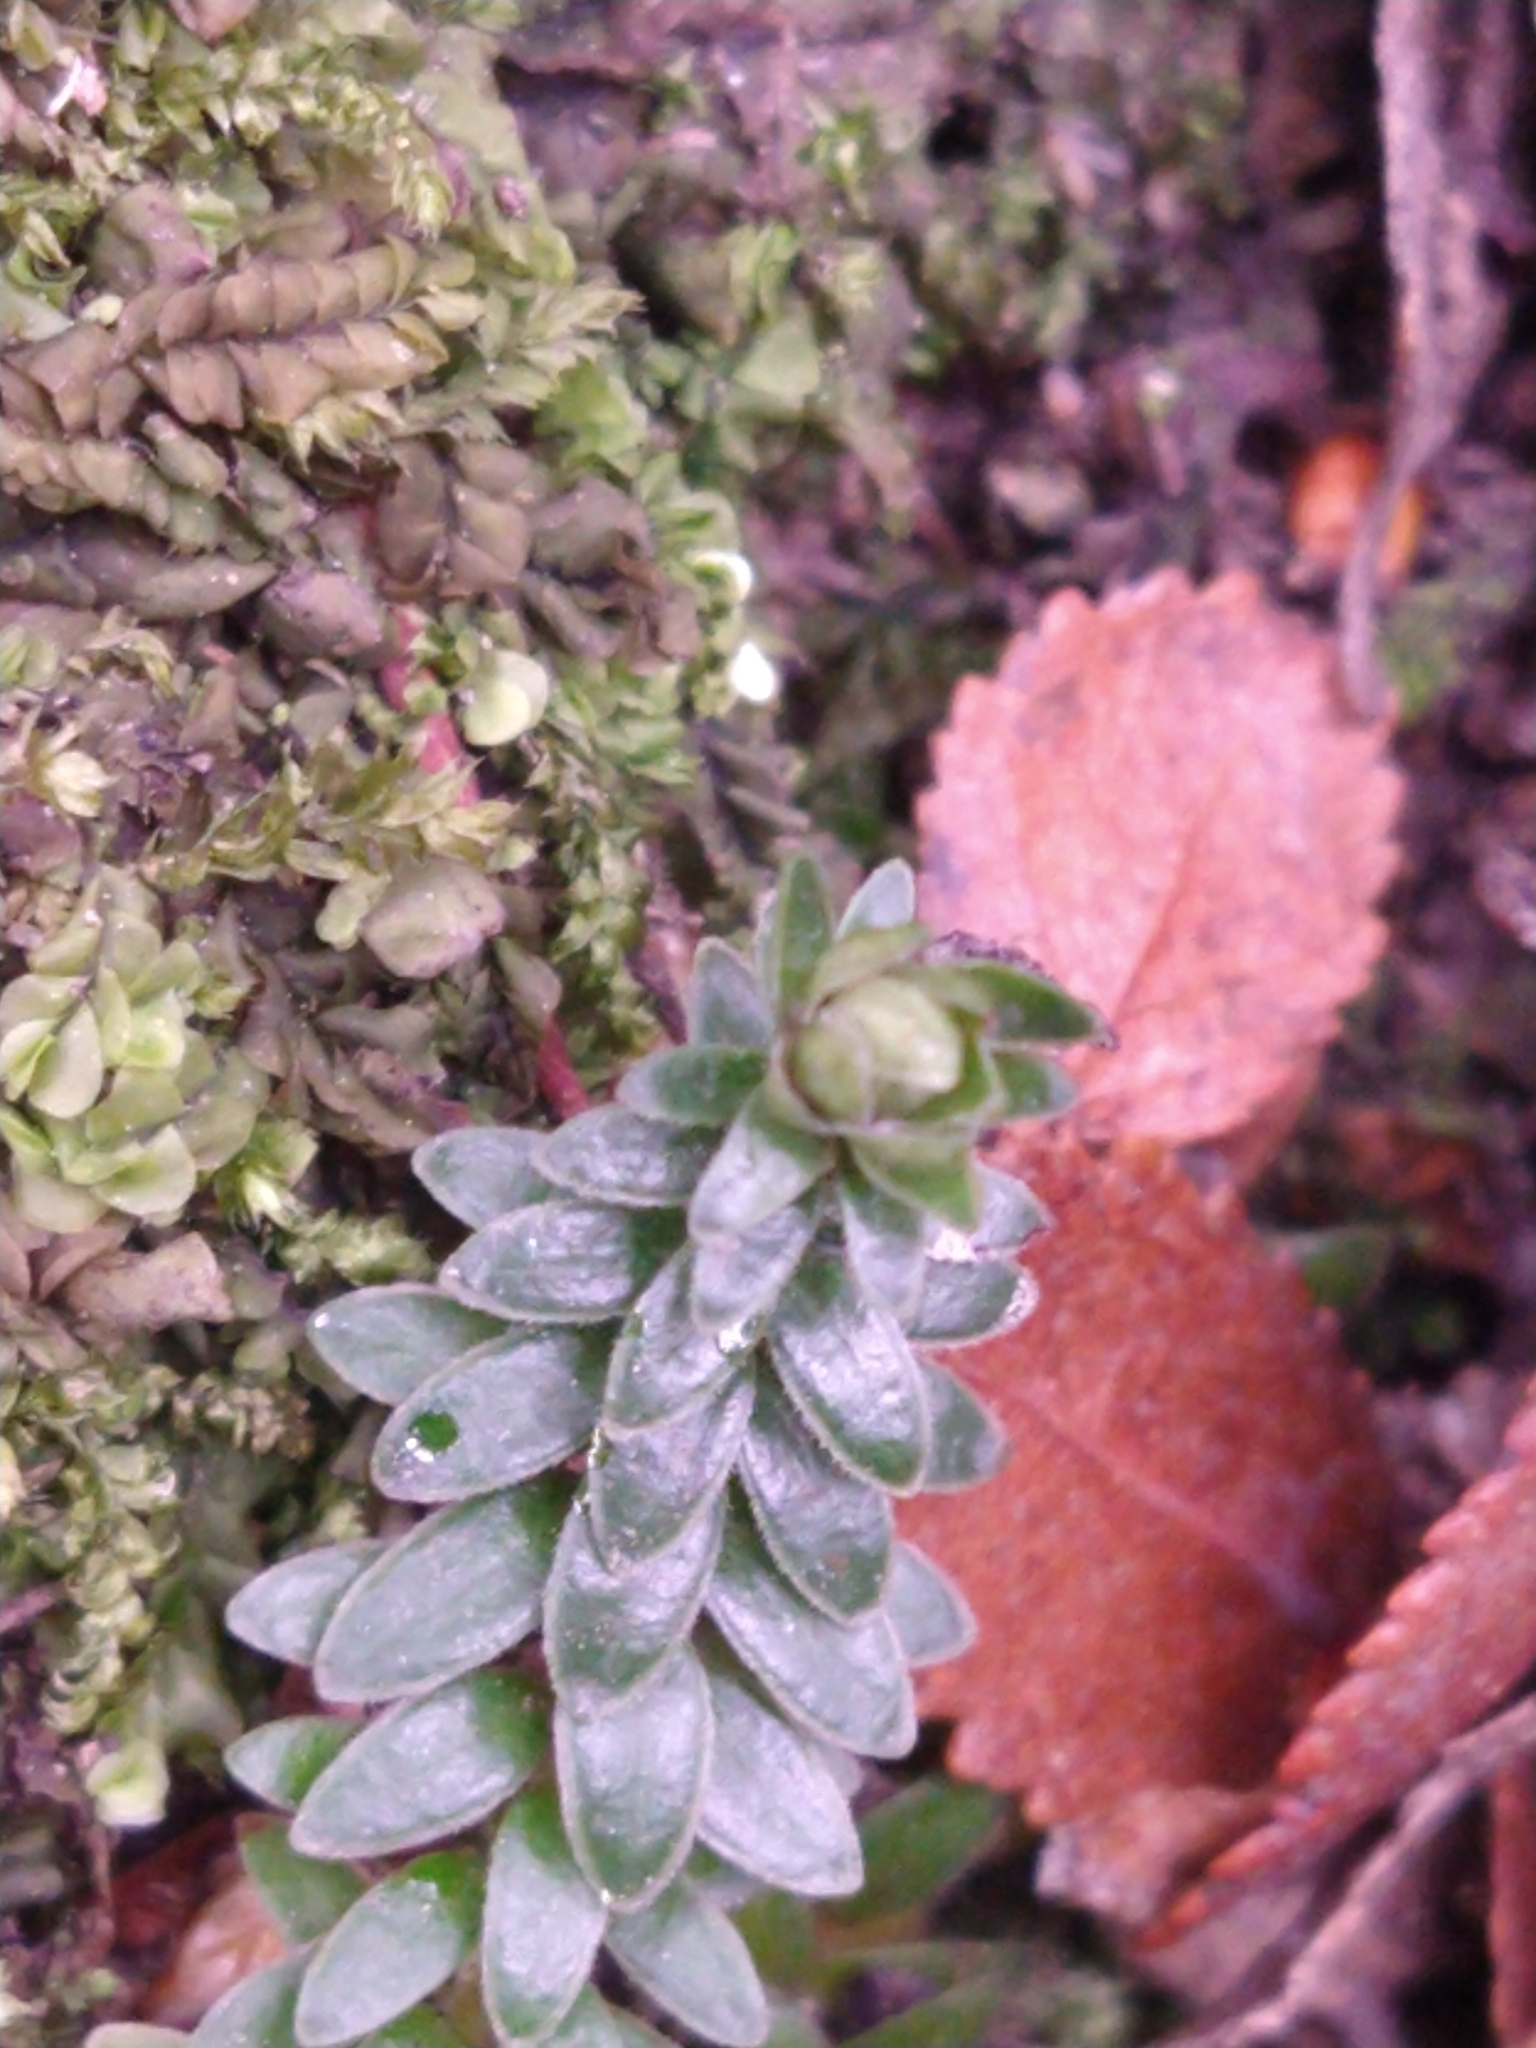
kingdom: Plantae
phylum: Tracheophyta
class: Magnoliopsida
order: Ericales
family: Ericaceae
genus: Gaultheria
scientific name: Gaultheria pumila
